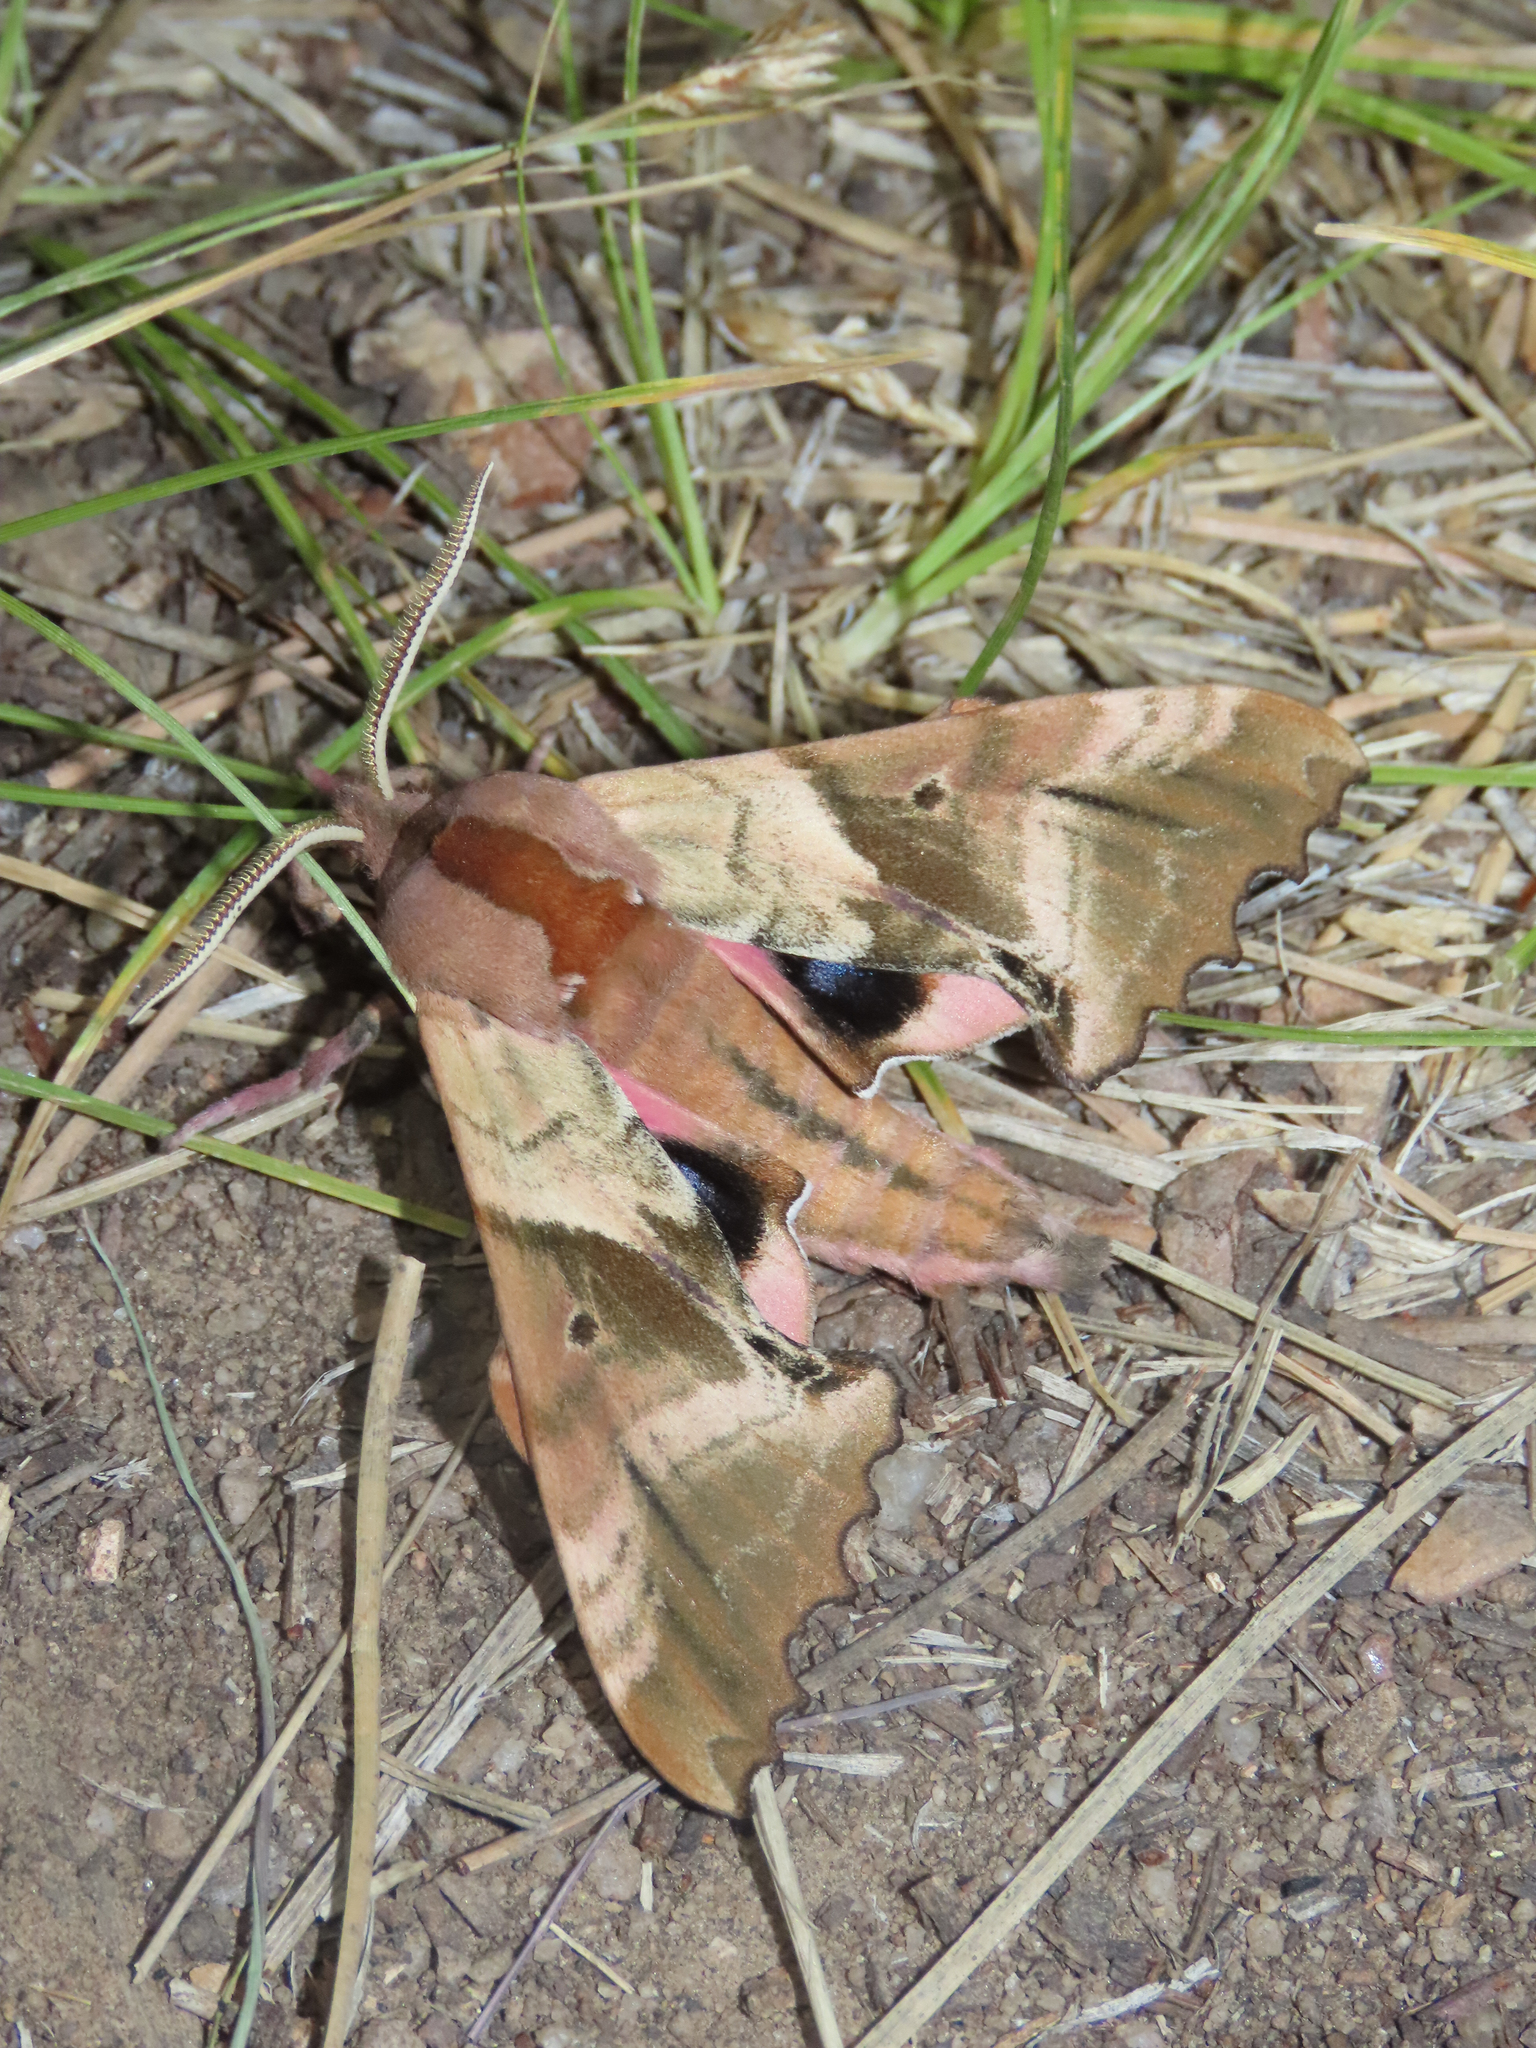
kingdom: Animalia
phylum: Arthropoda
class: Insecta
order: Lepidoptera
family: Sphingidae
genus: Paonias
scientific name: Paonias excaecata
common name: Blind-eyed sphinx
